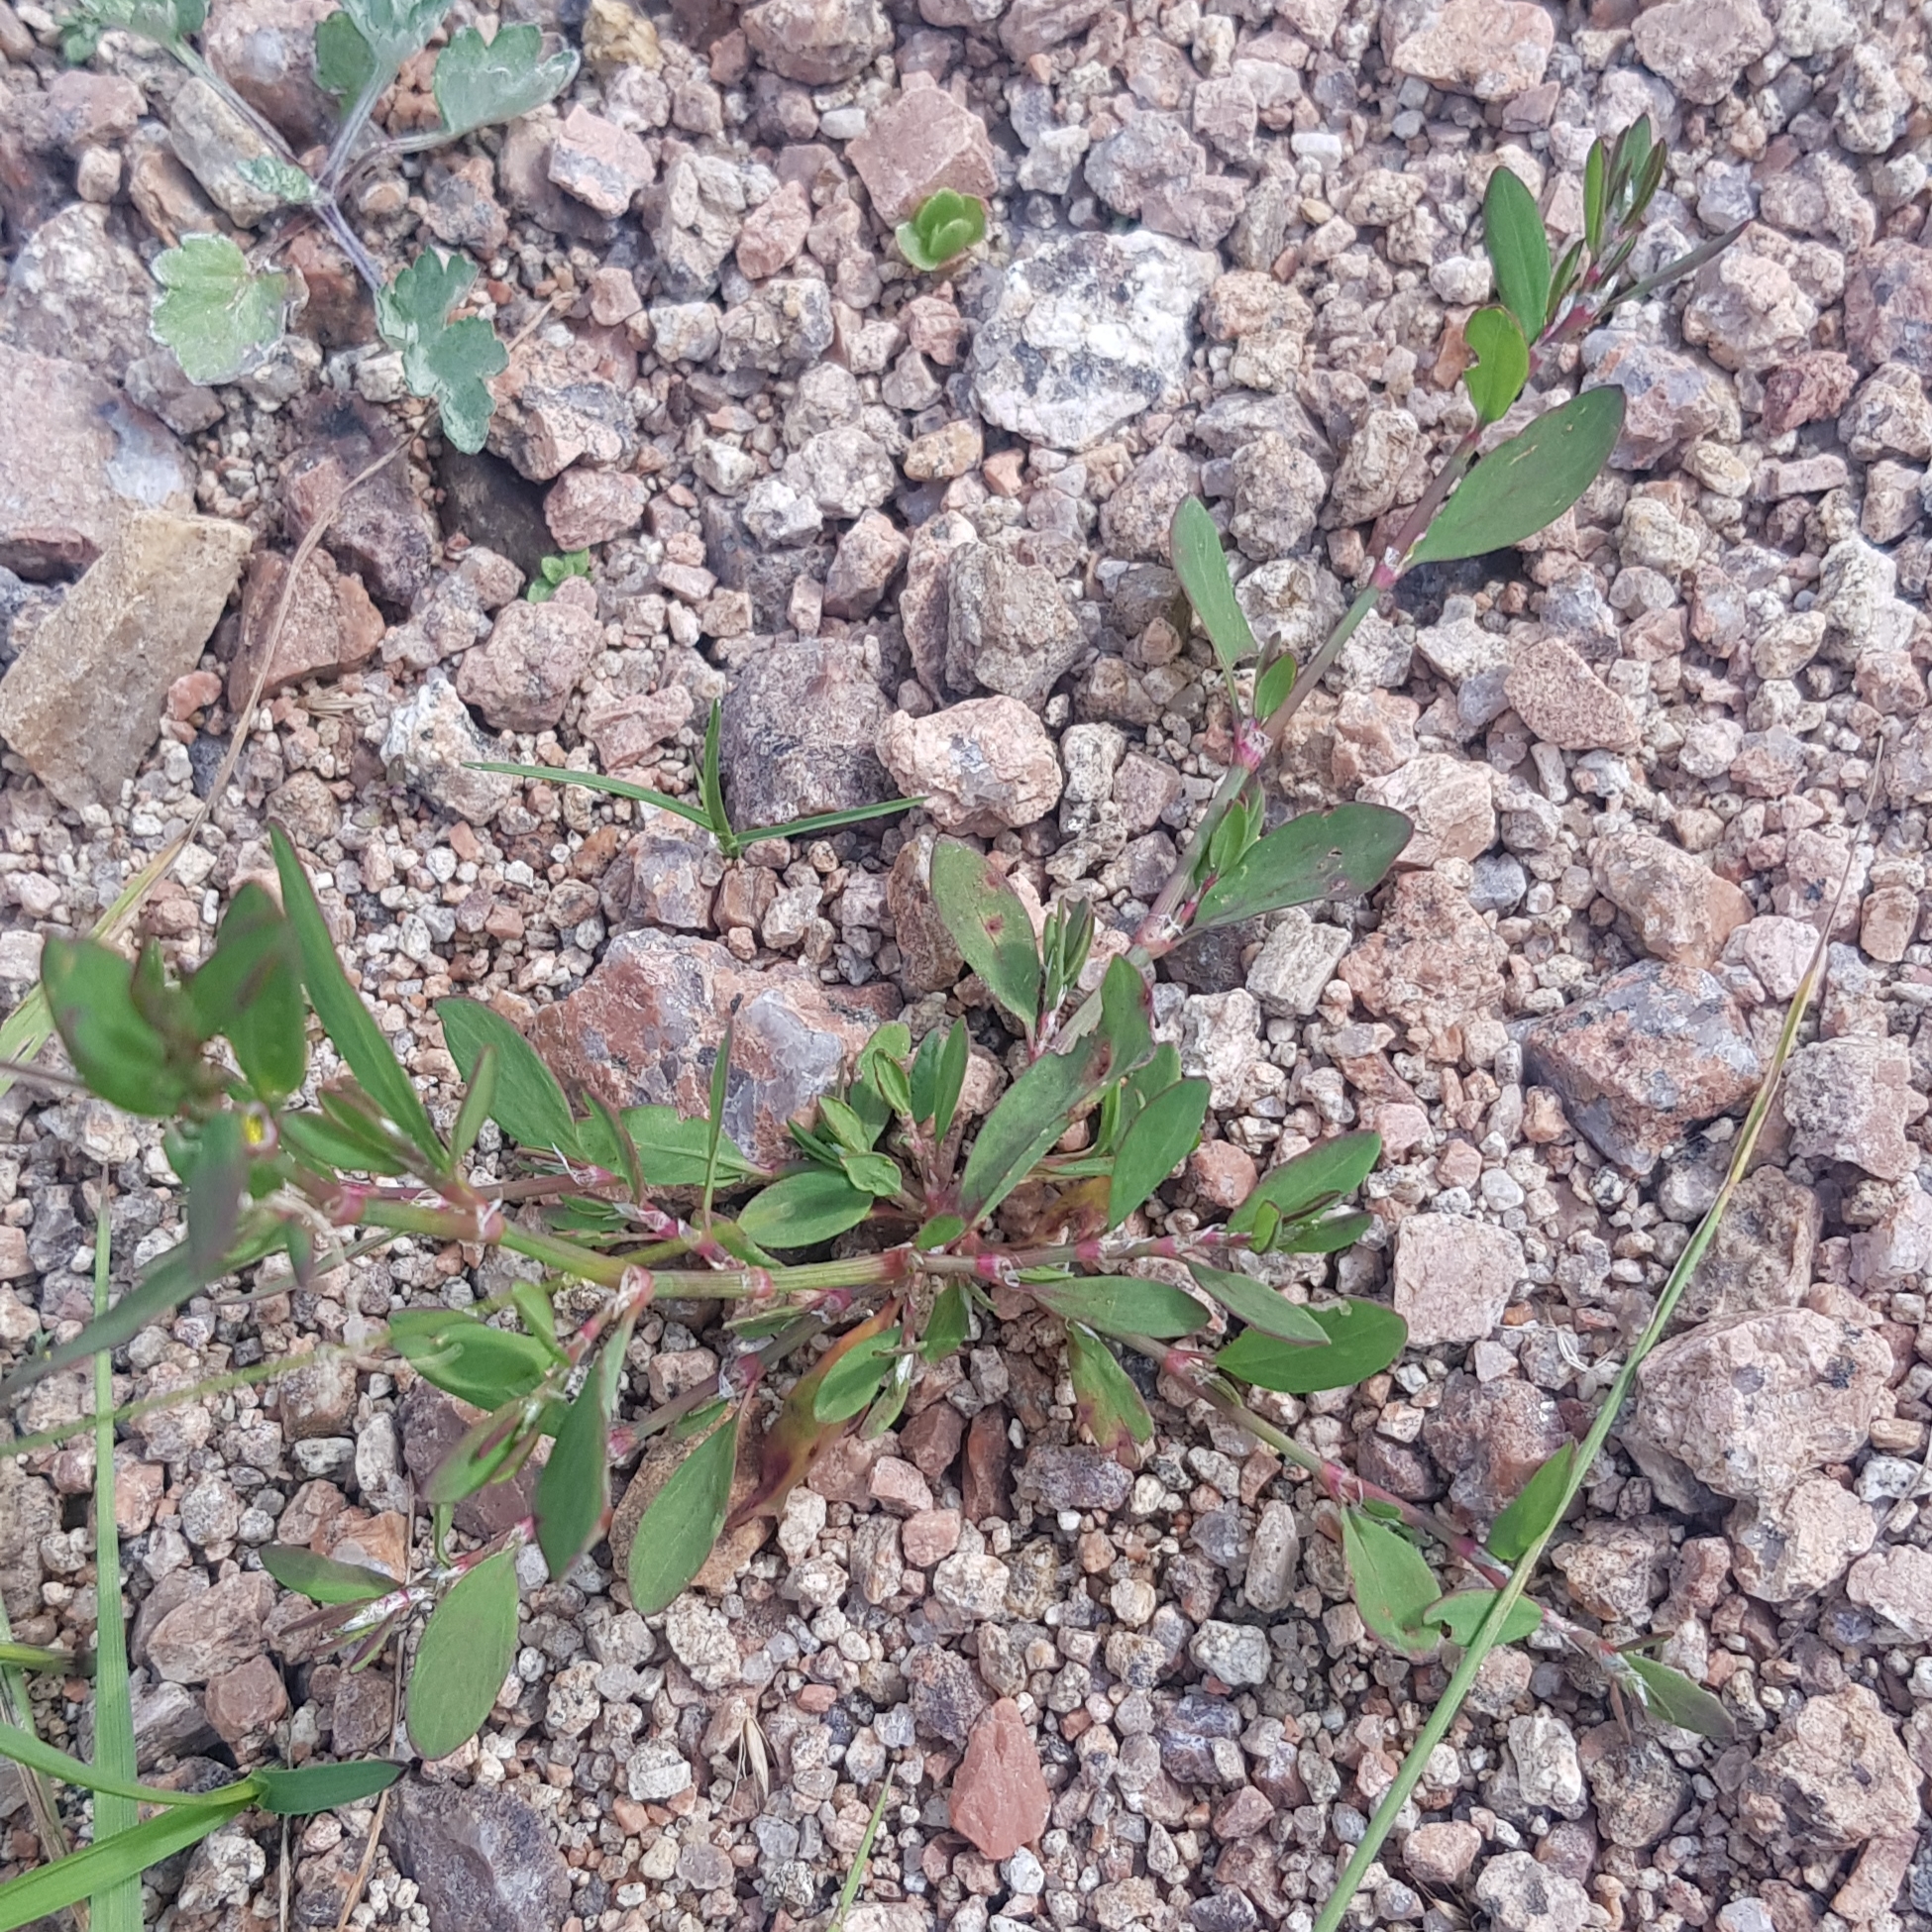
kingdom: Plantae
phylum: Tracheophyta
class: Magnoliopsida
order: Caryophyllales
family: Polygonaceae
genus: Polygonum
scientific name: Polygonum aviculare
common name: Prostrate knotweed
